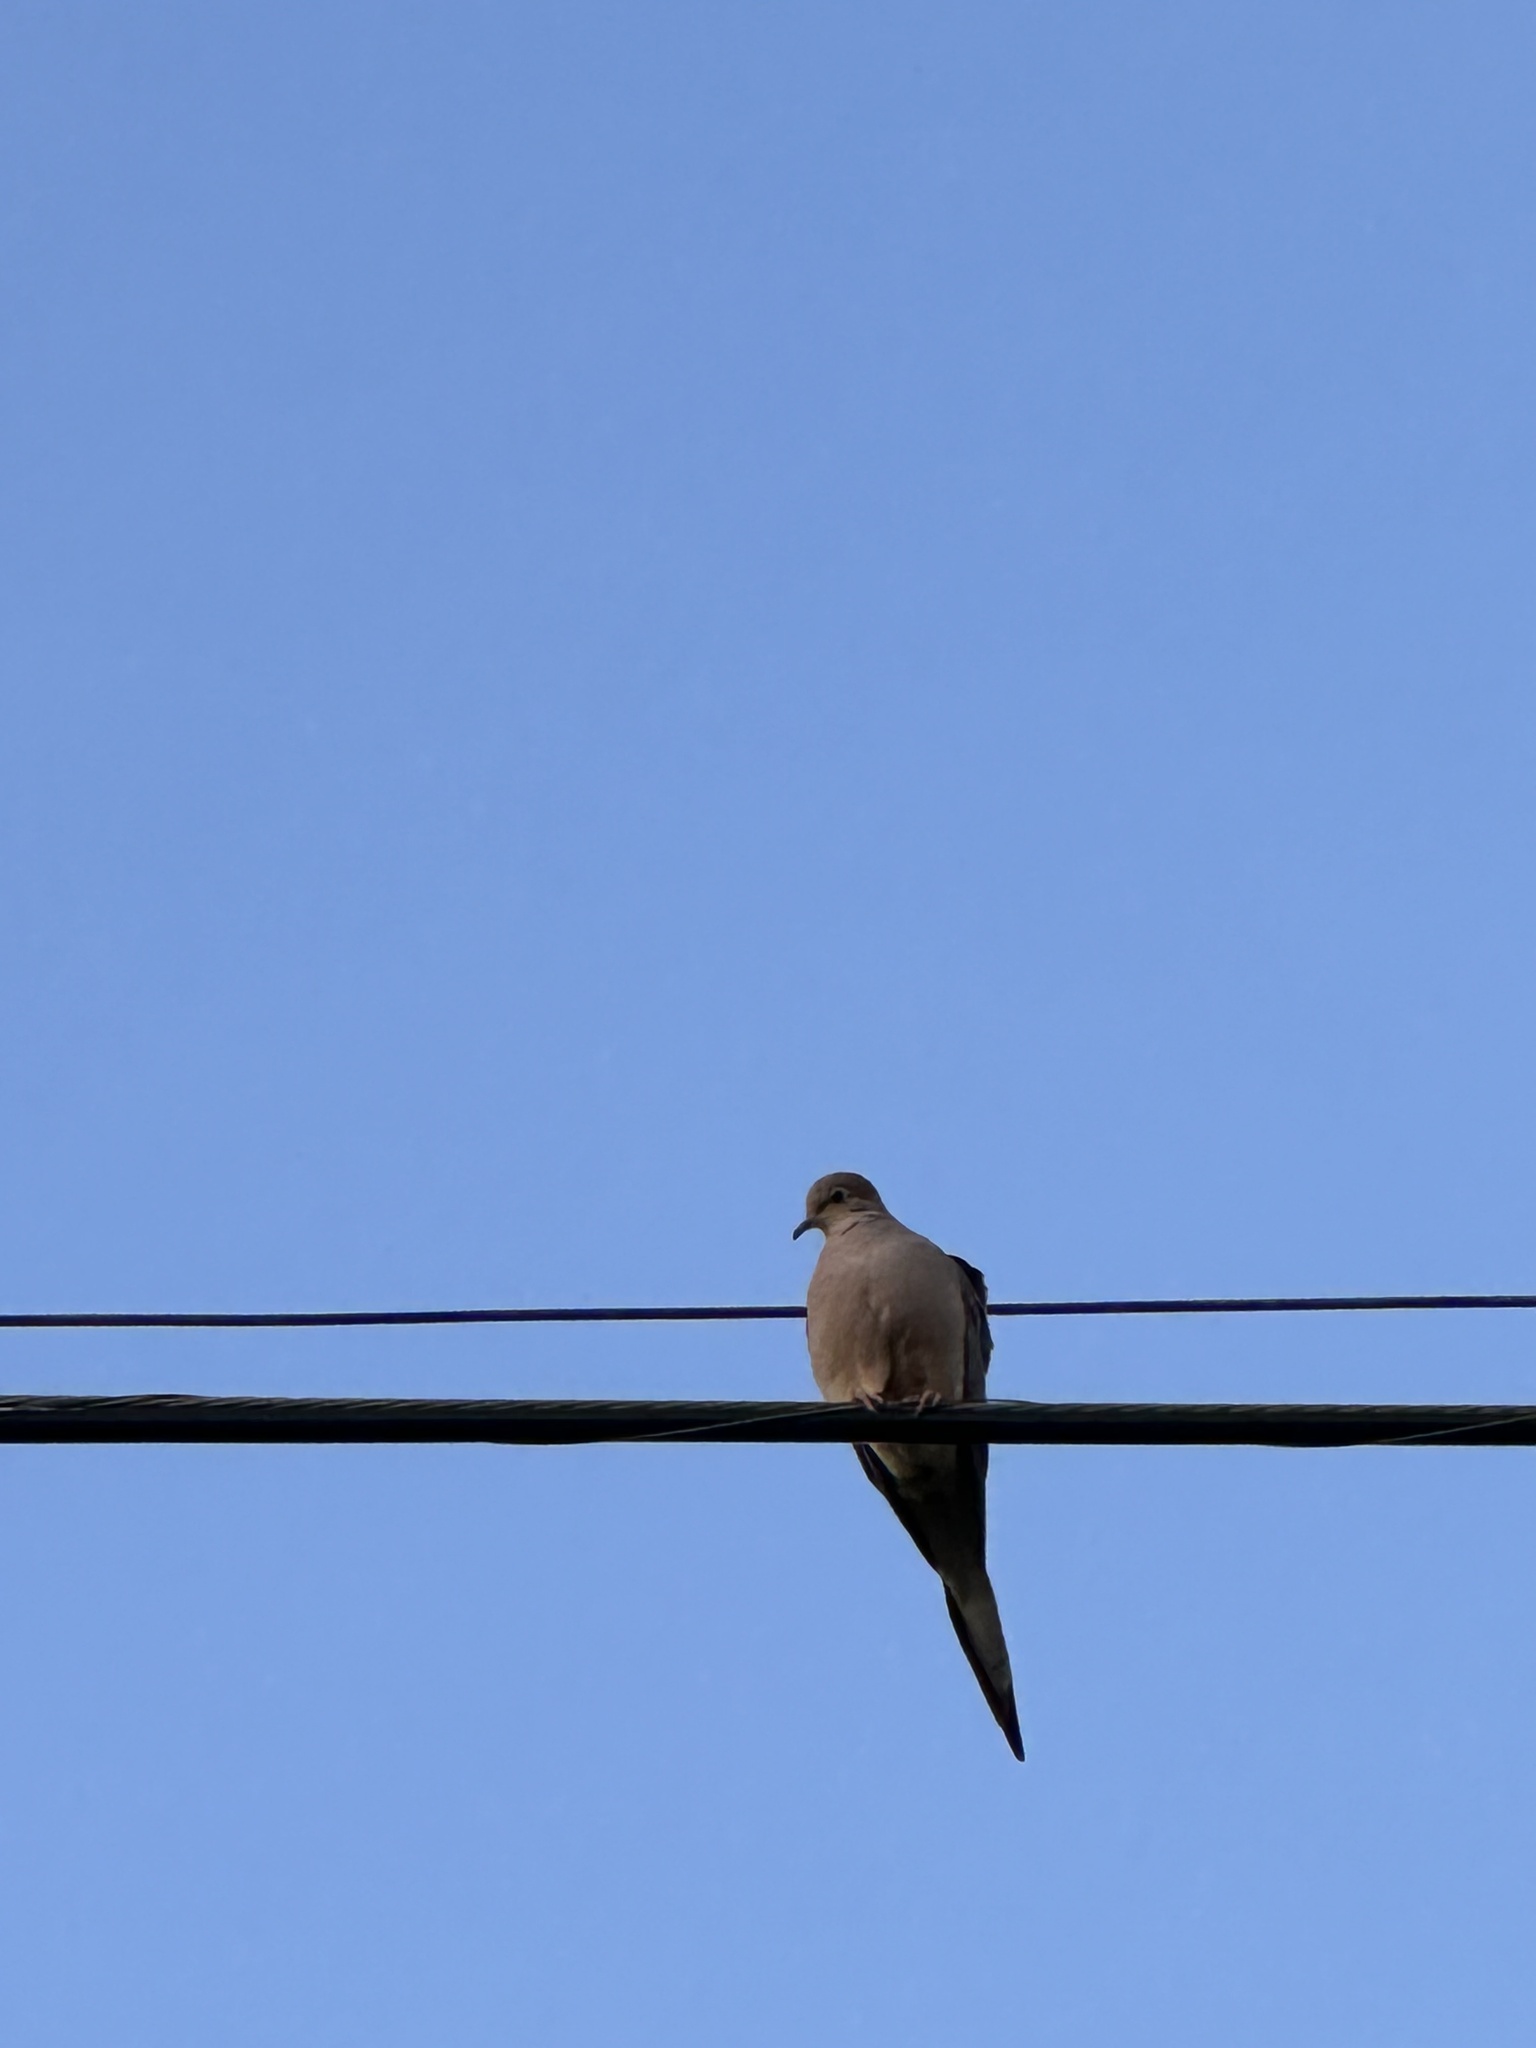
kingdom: Animalia
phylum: Chordata
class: Aves
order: Columbiformes
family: Columbidae
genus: Zenaida
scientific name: Zenaida macroura
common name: Mourning dove
